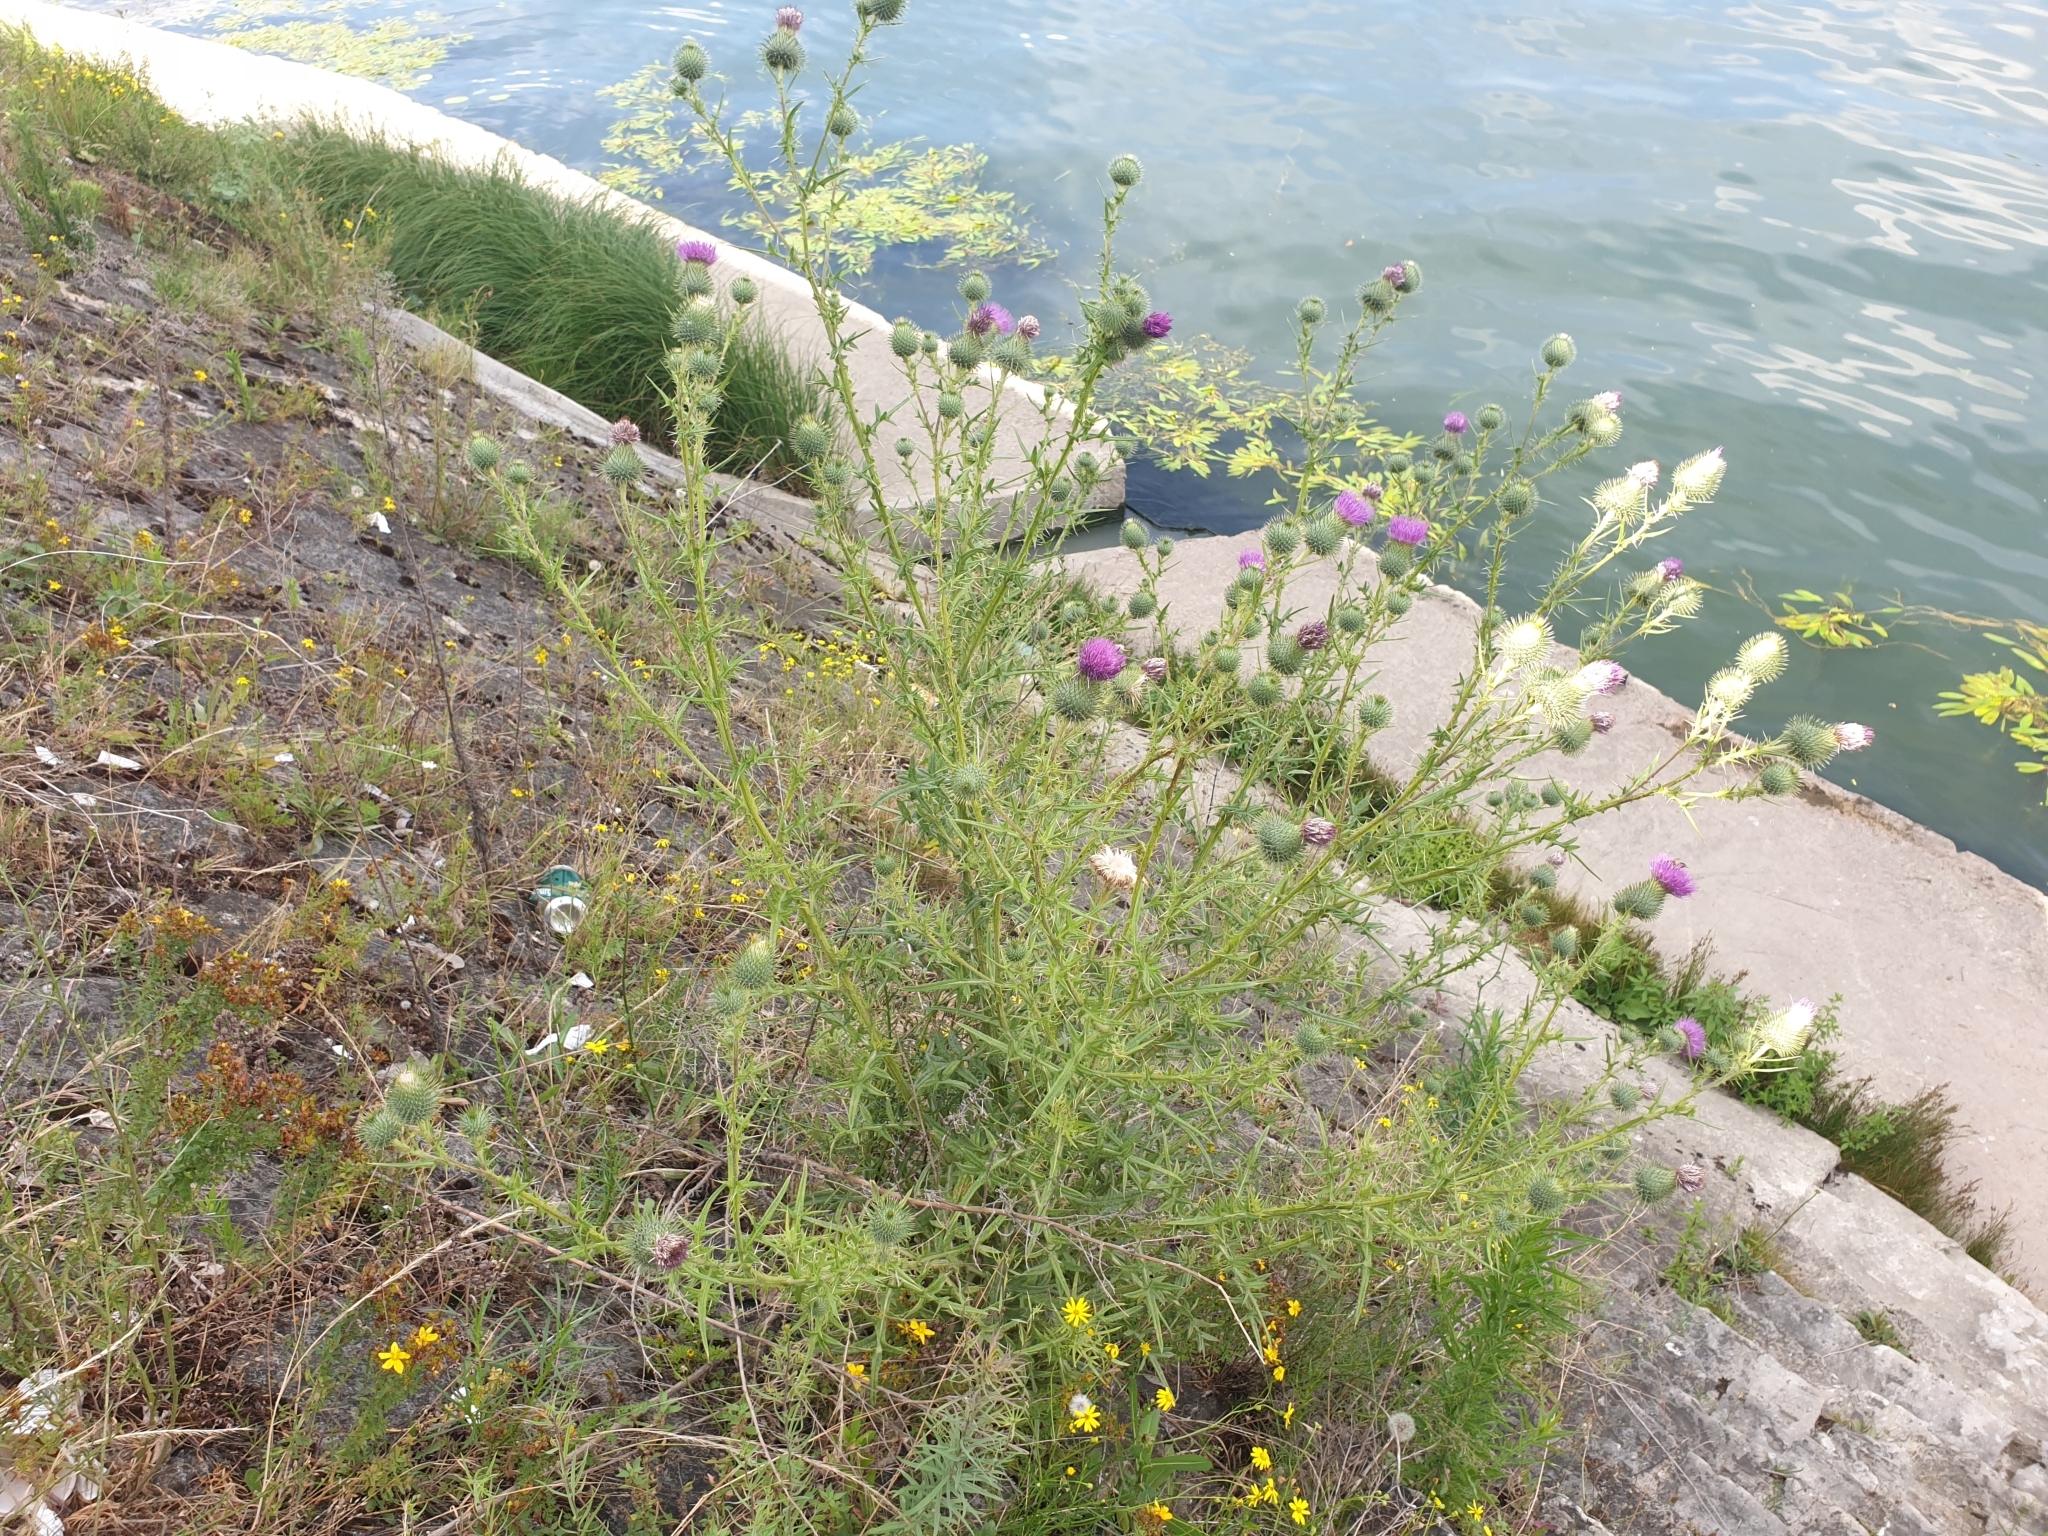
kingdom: Plantae
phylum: Tracheophyta
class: Magnoliopsida
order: Asterales
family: Asteraceae
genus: Cirsium
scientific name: Cirsium vulgare
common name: Bull thistle
